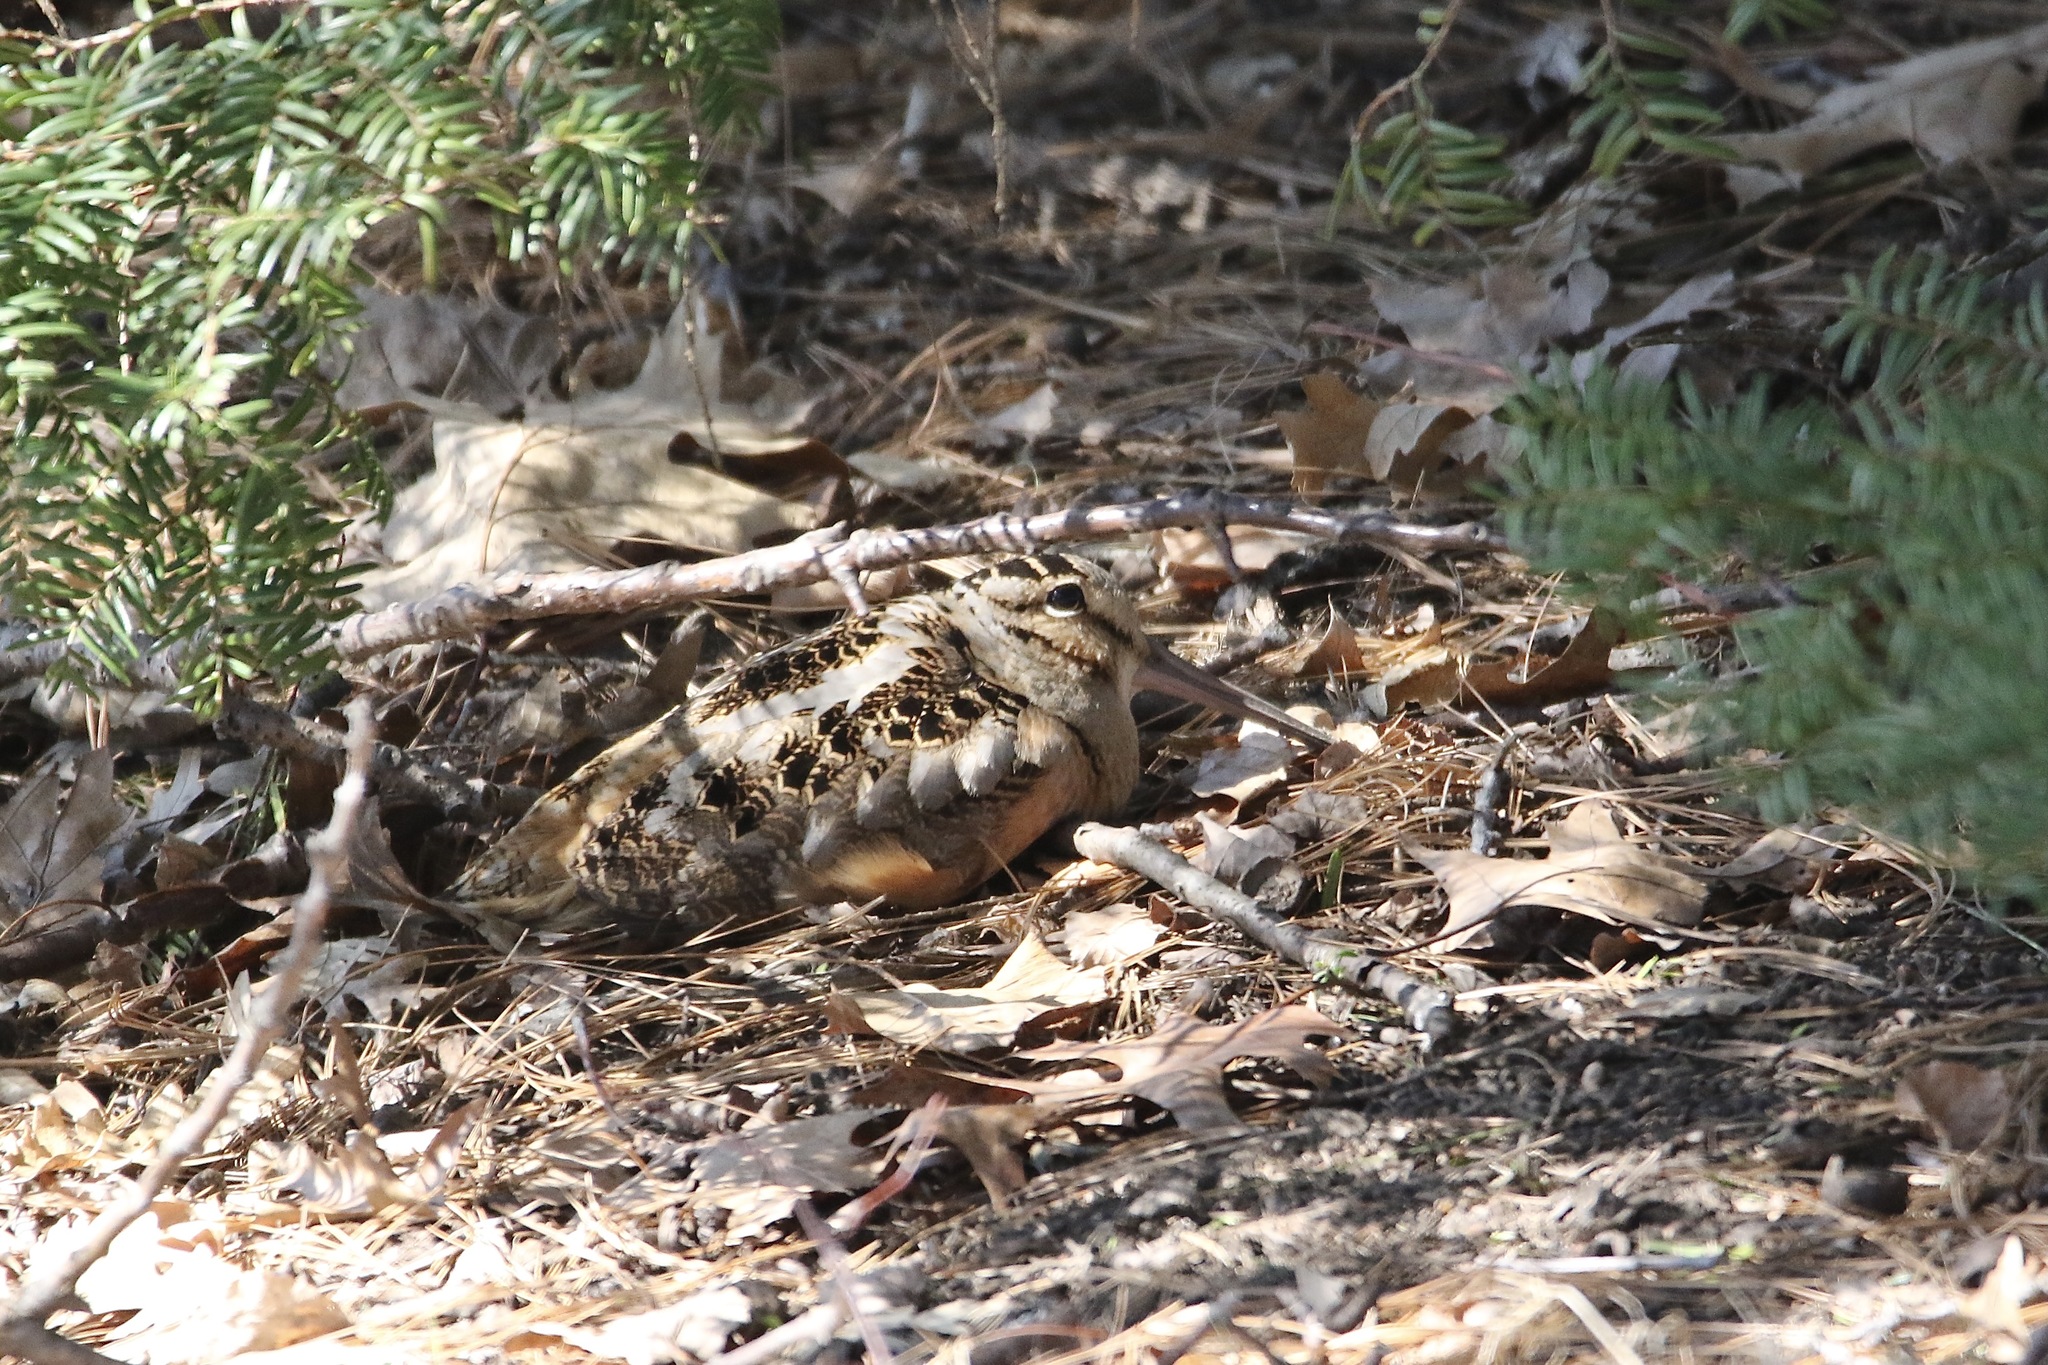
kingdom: Animalia
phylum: Chordata
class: Aves
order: Charadriiformes
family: Scolopacidae
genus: Scolopax
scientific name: Scolopax minor
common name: American woodcock
